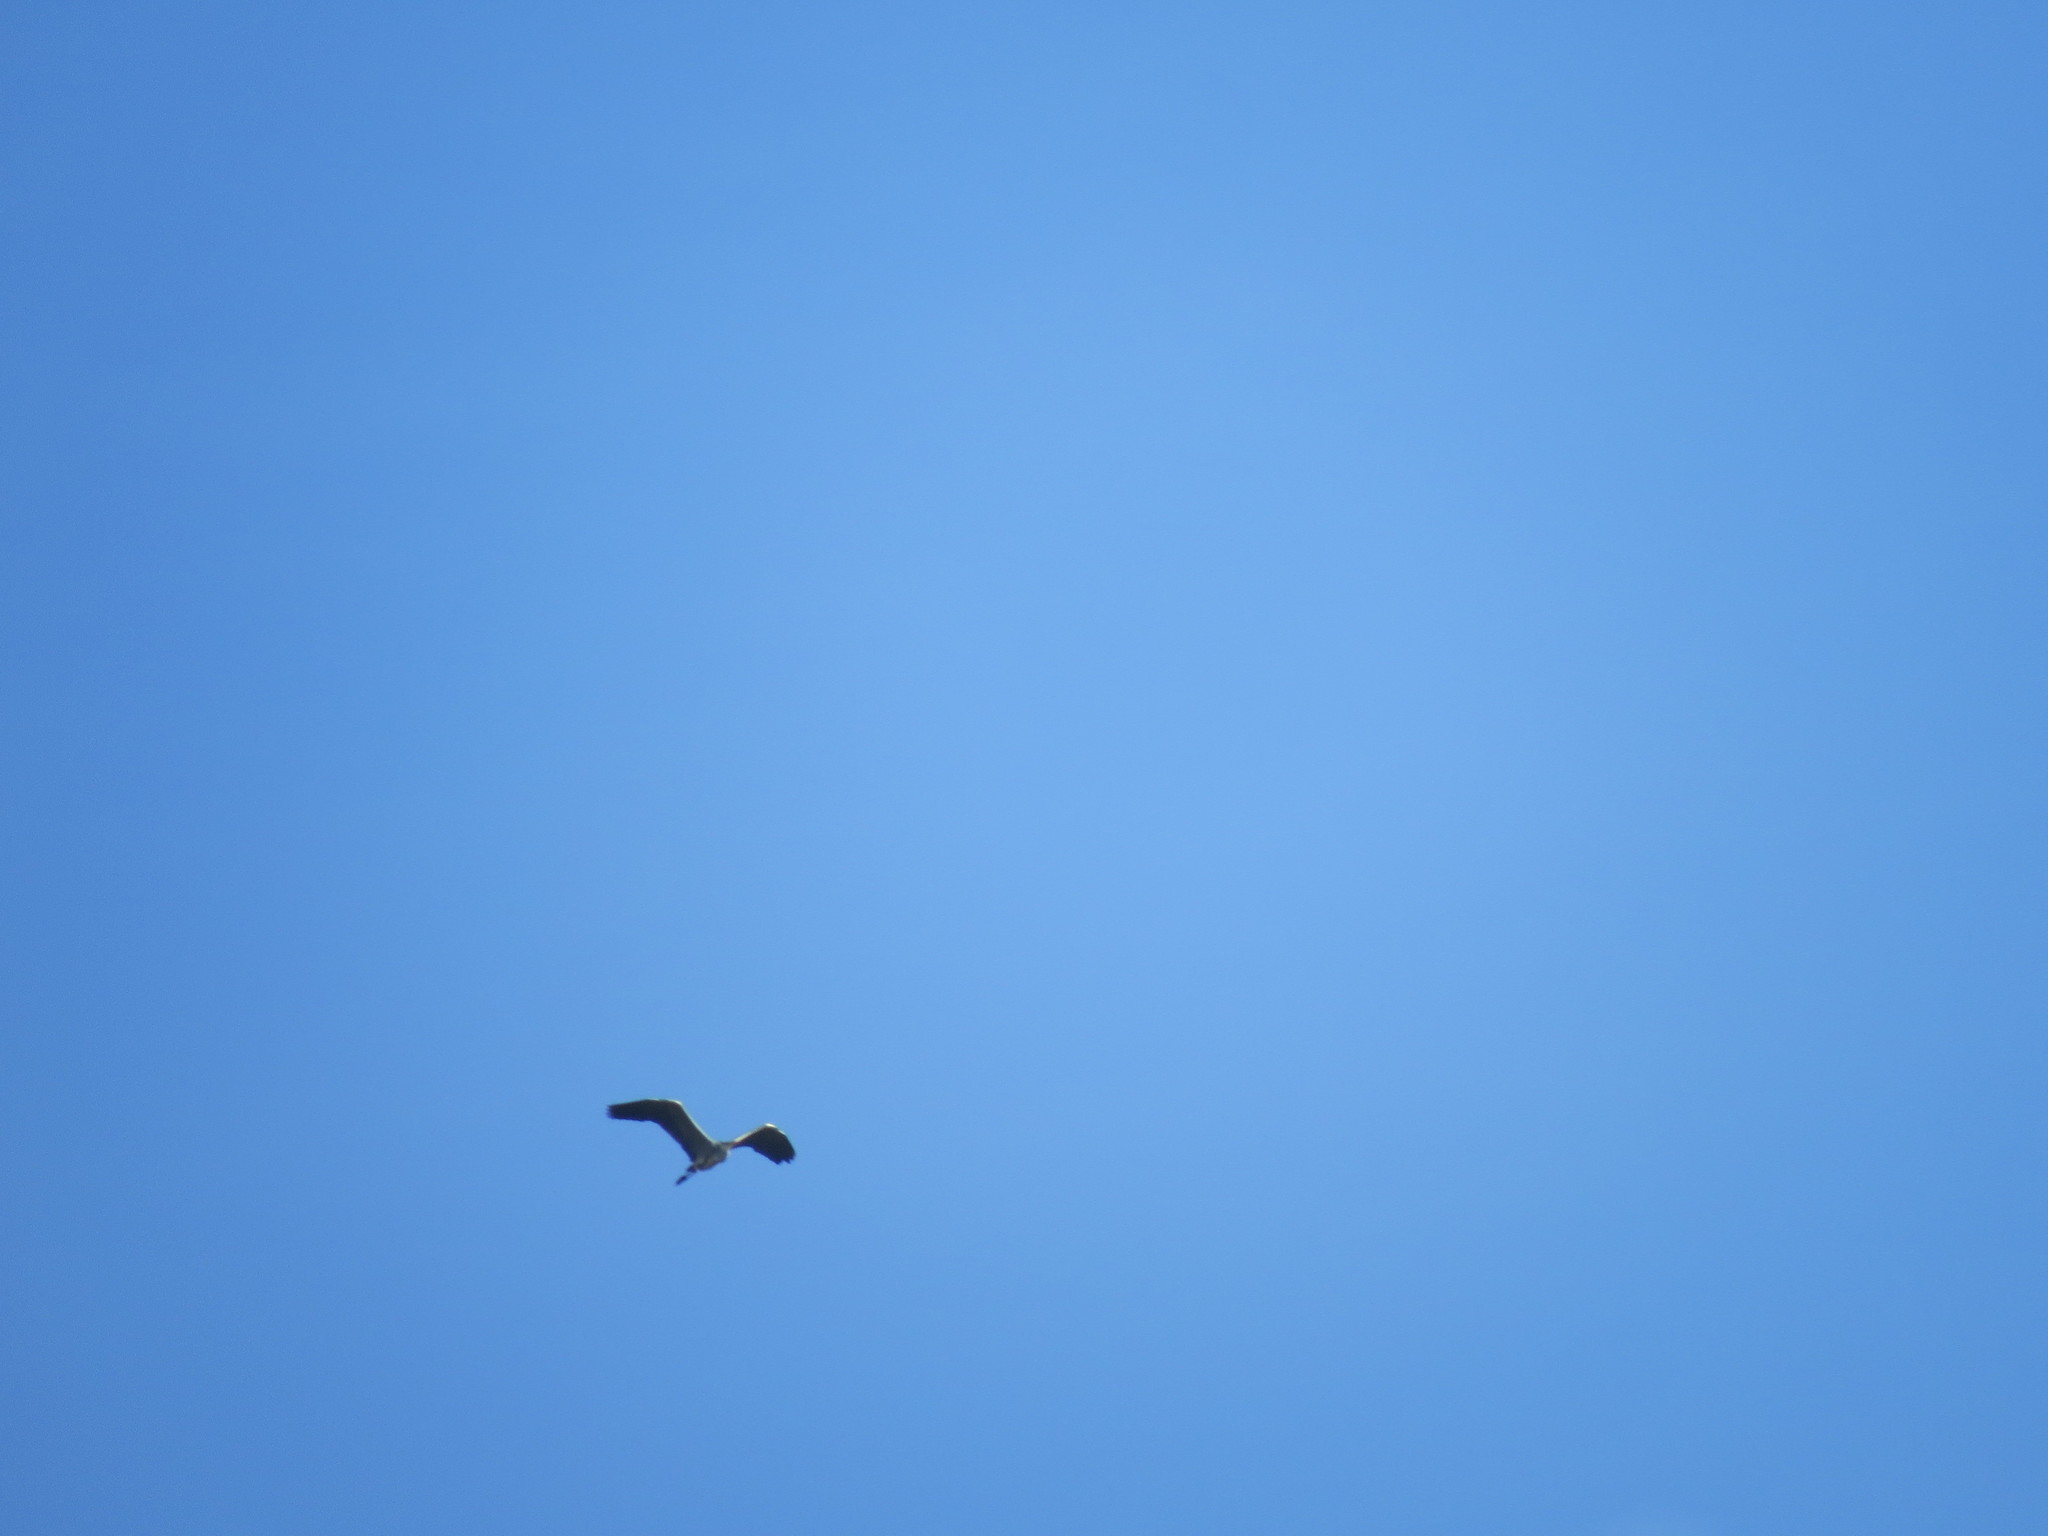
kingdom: Animalia
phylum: Chordata
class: Aves
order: Pelecaniformes
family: Ardeidae
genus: Ardea
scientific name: Ardea cinerea
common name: Grey heron
